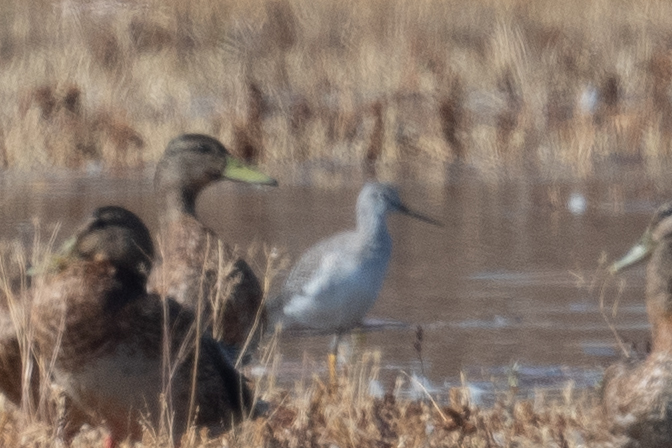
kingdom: Animalia
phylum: Chordata
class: Aves
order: Charadriiformes
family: Scolopacidae
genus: Tringa
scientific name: Tringa melanoleuca
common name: Greater yellowlegs
